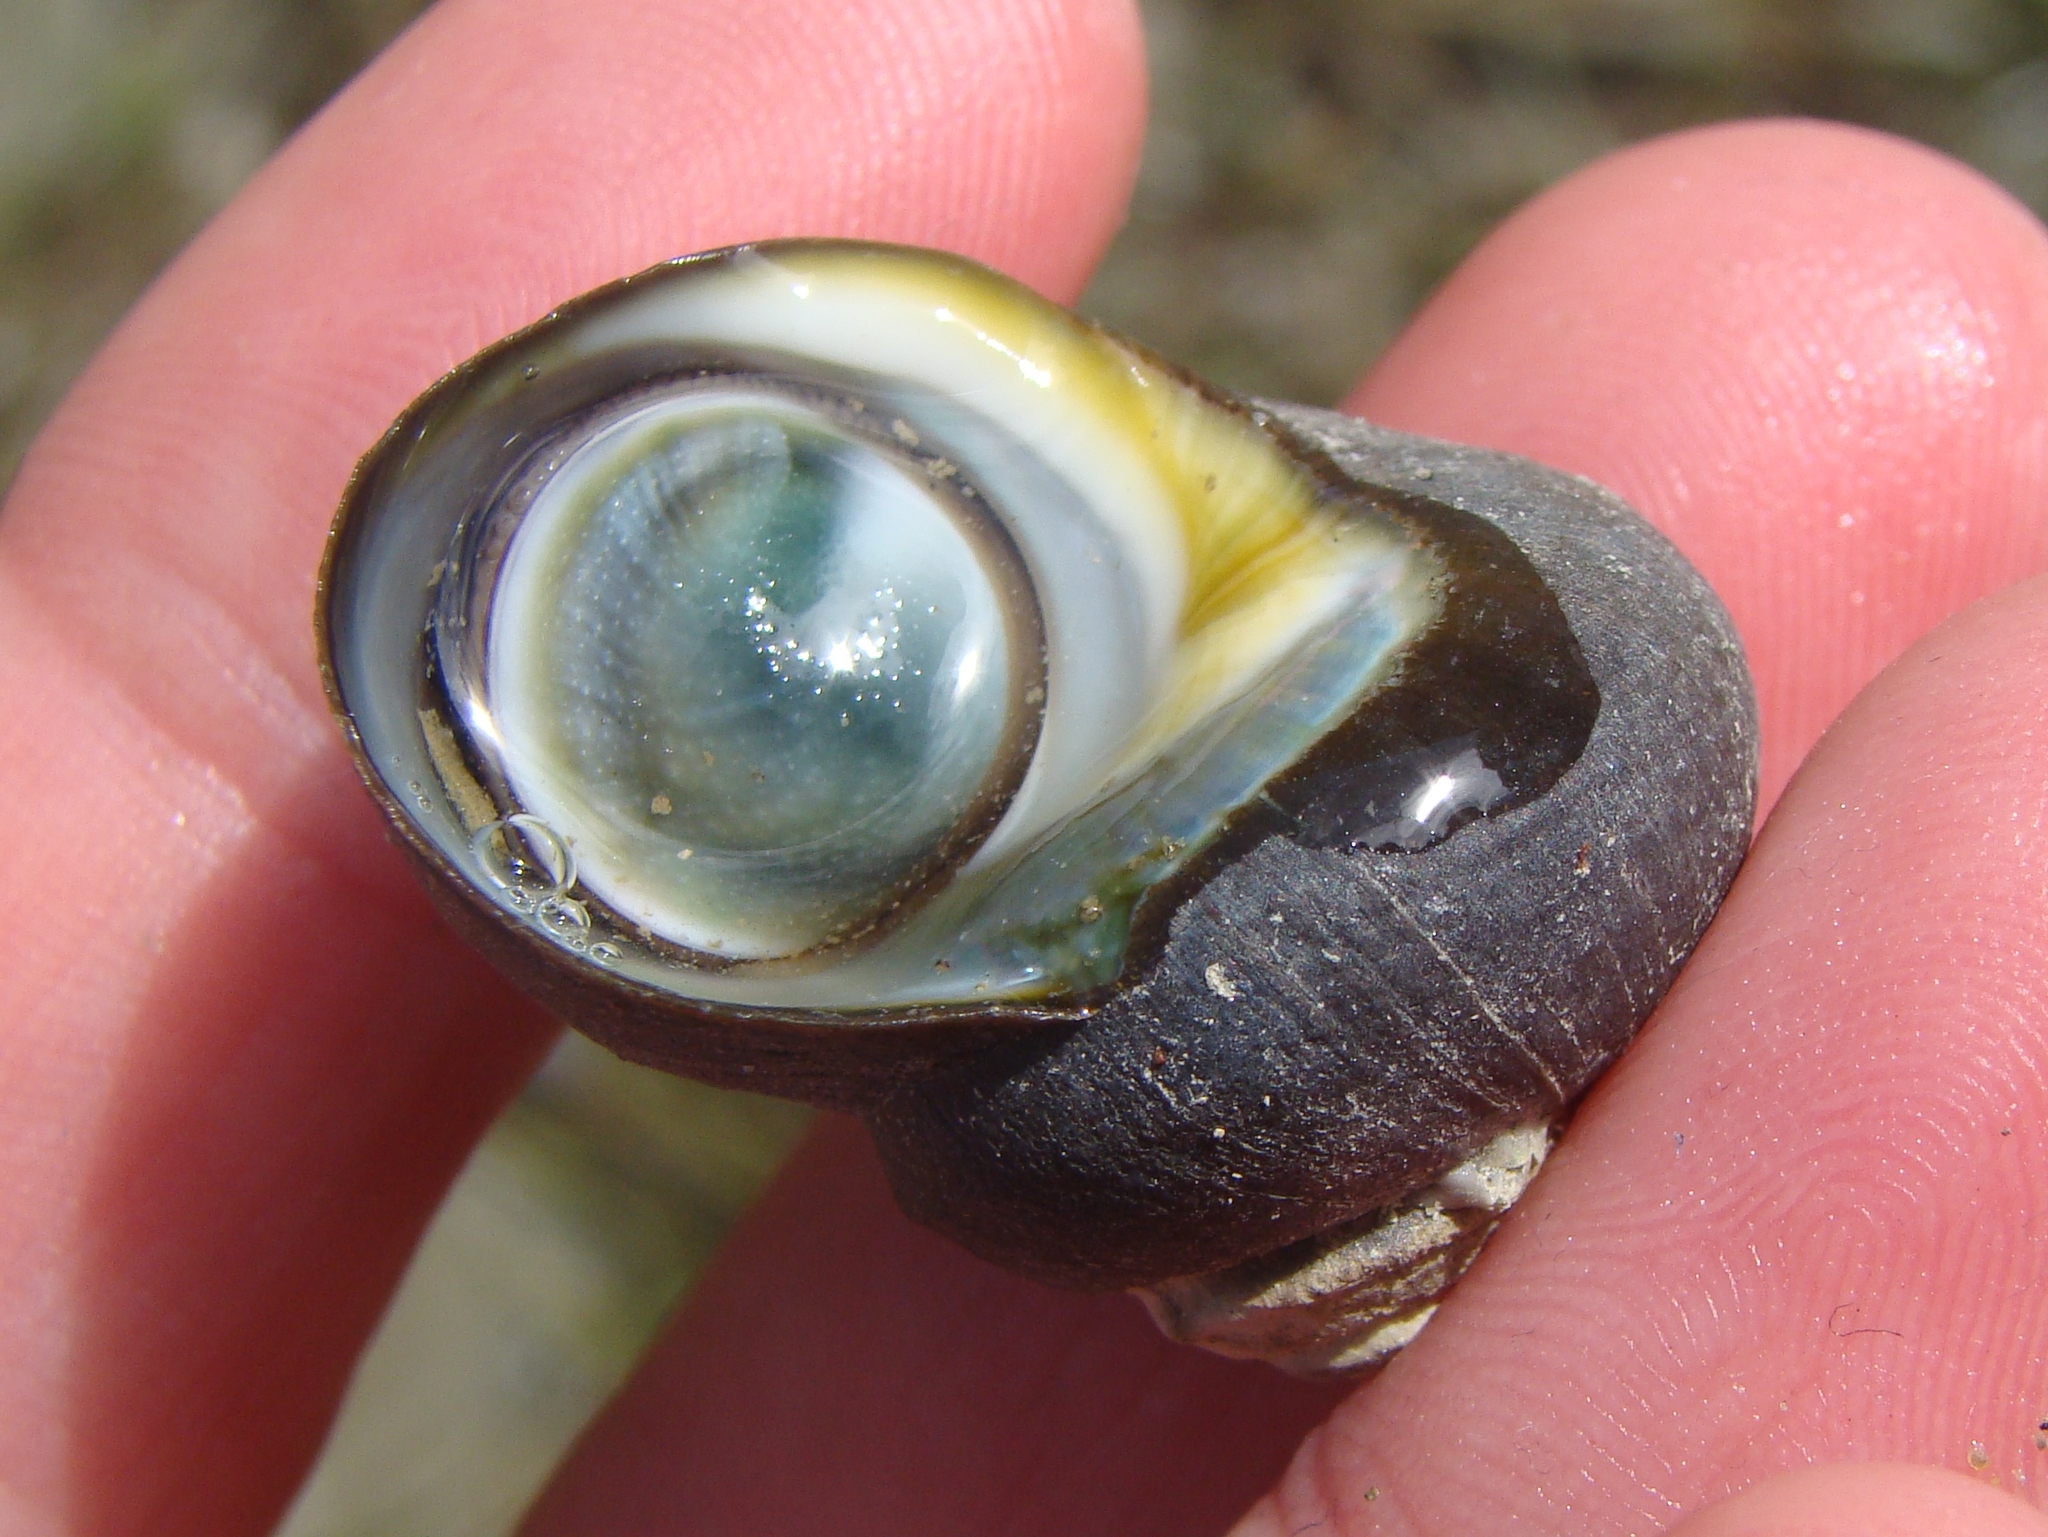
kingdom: Animalia
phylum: Mollusca
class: Gastropoda
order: Trochida
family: Turbinidae
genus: Lunella
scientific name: Lunella smaragda
